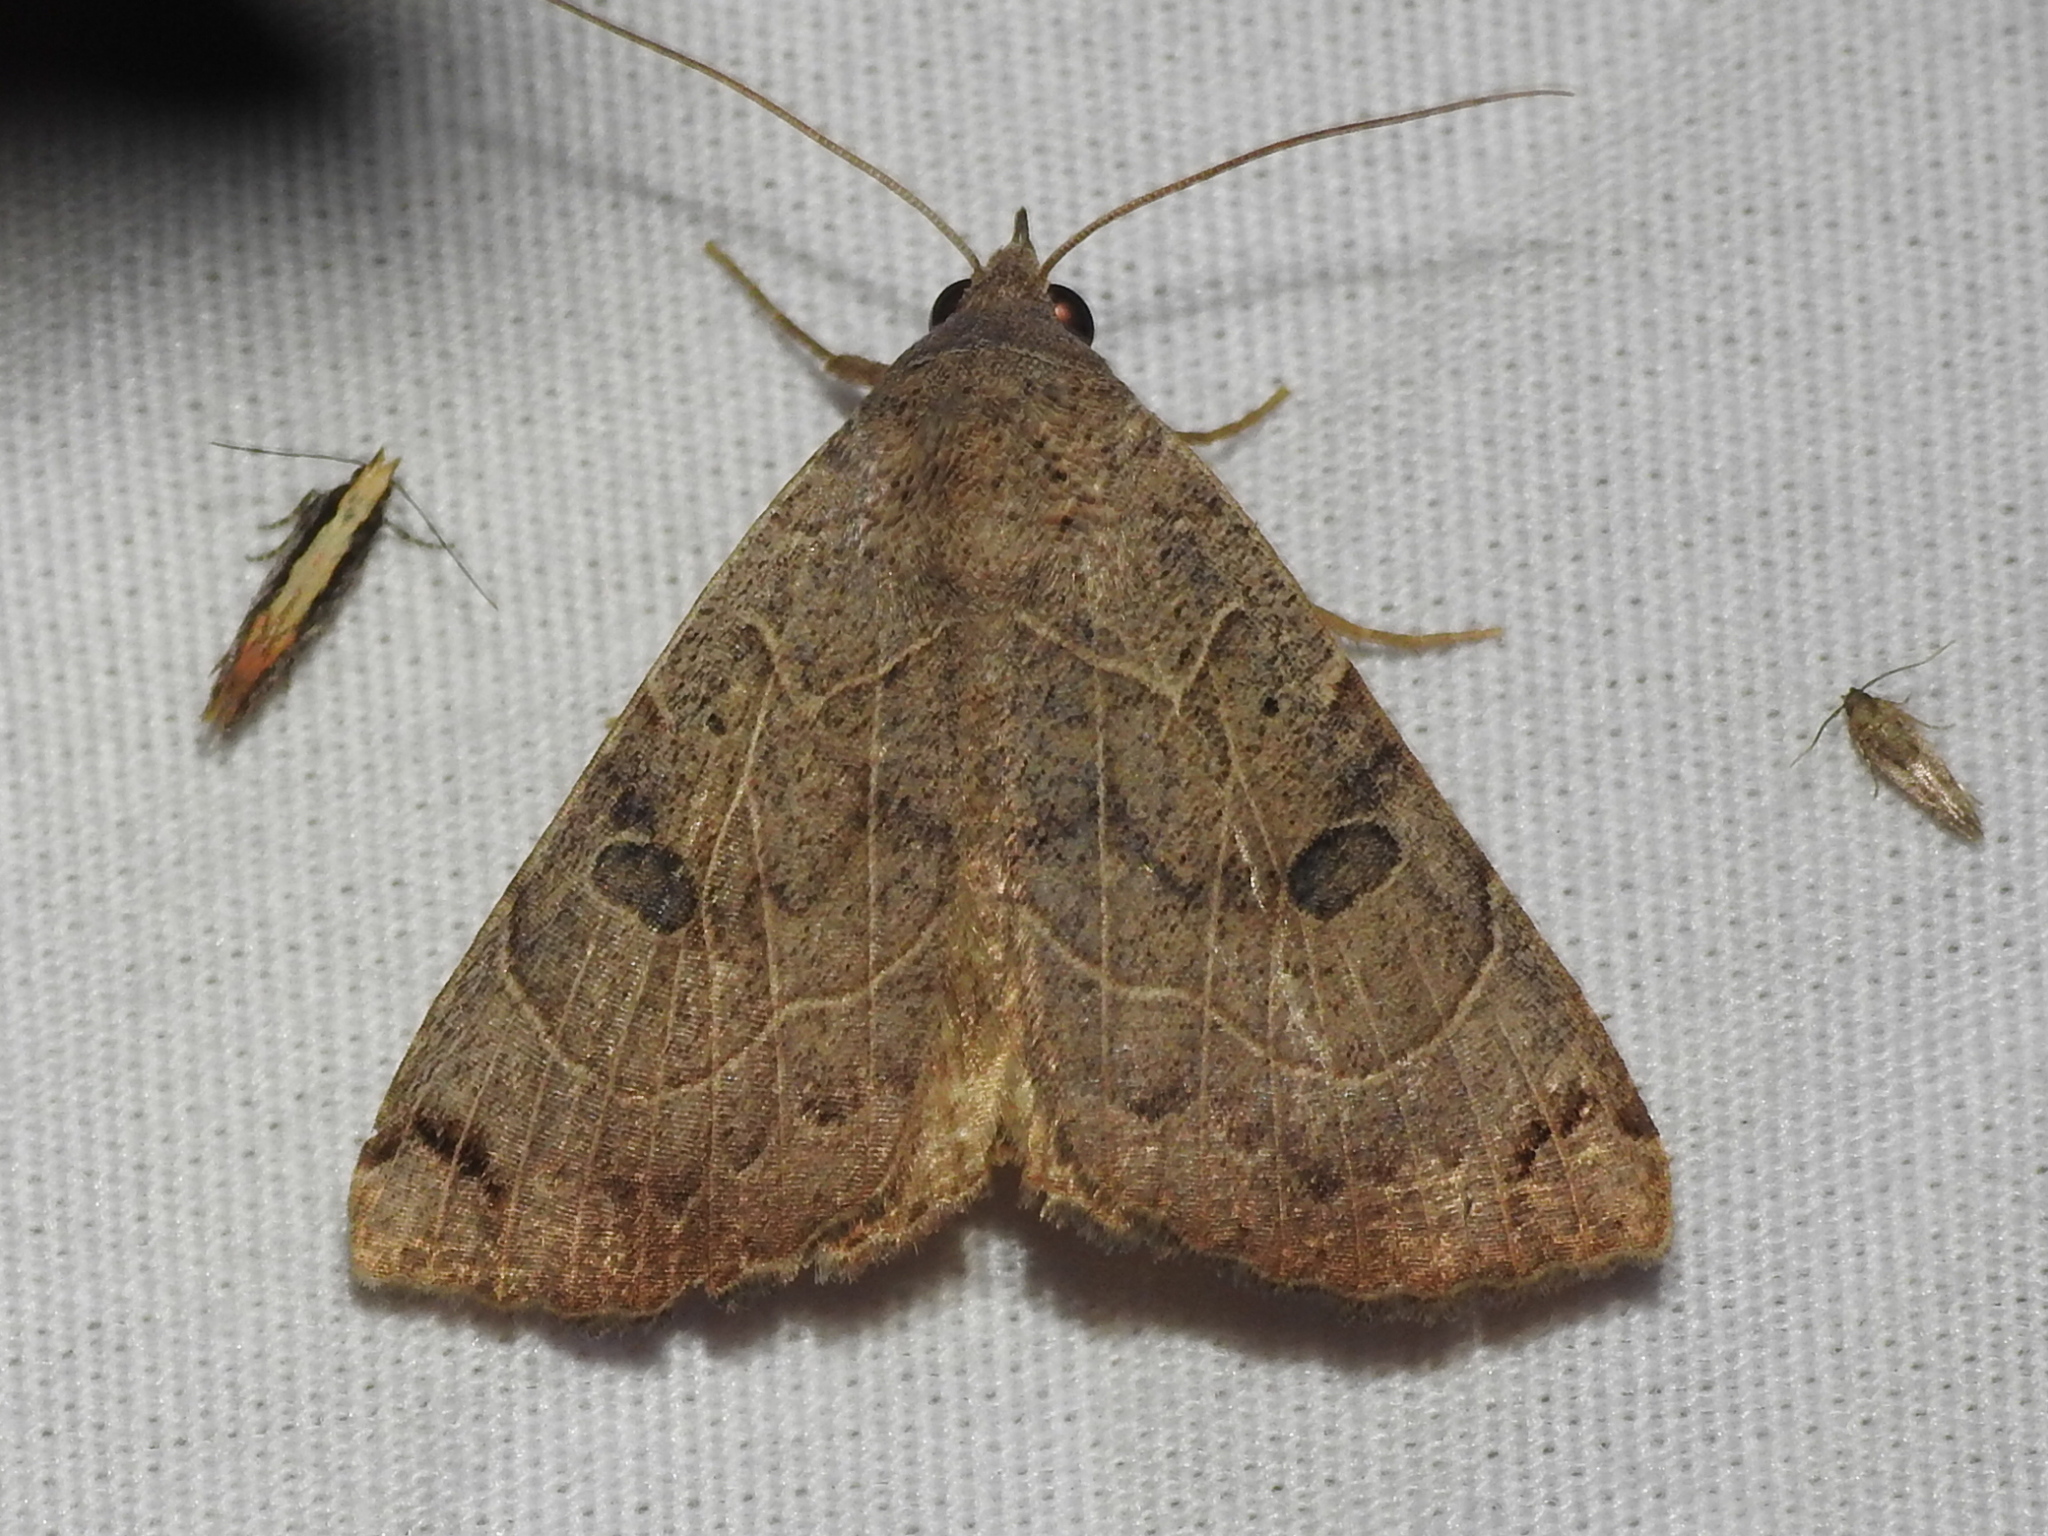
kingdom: Animalia
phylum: Arthropoda
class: Insecta
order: Lepidoptera
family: Erebidae
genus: Isogona
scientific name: Isogona scindens
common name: Owlet moth
